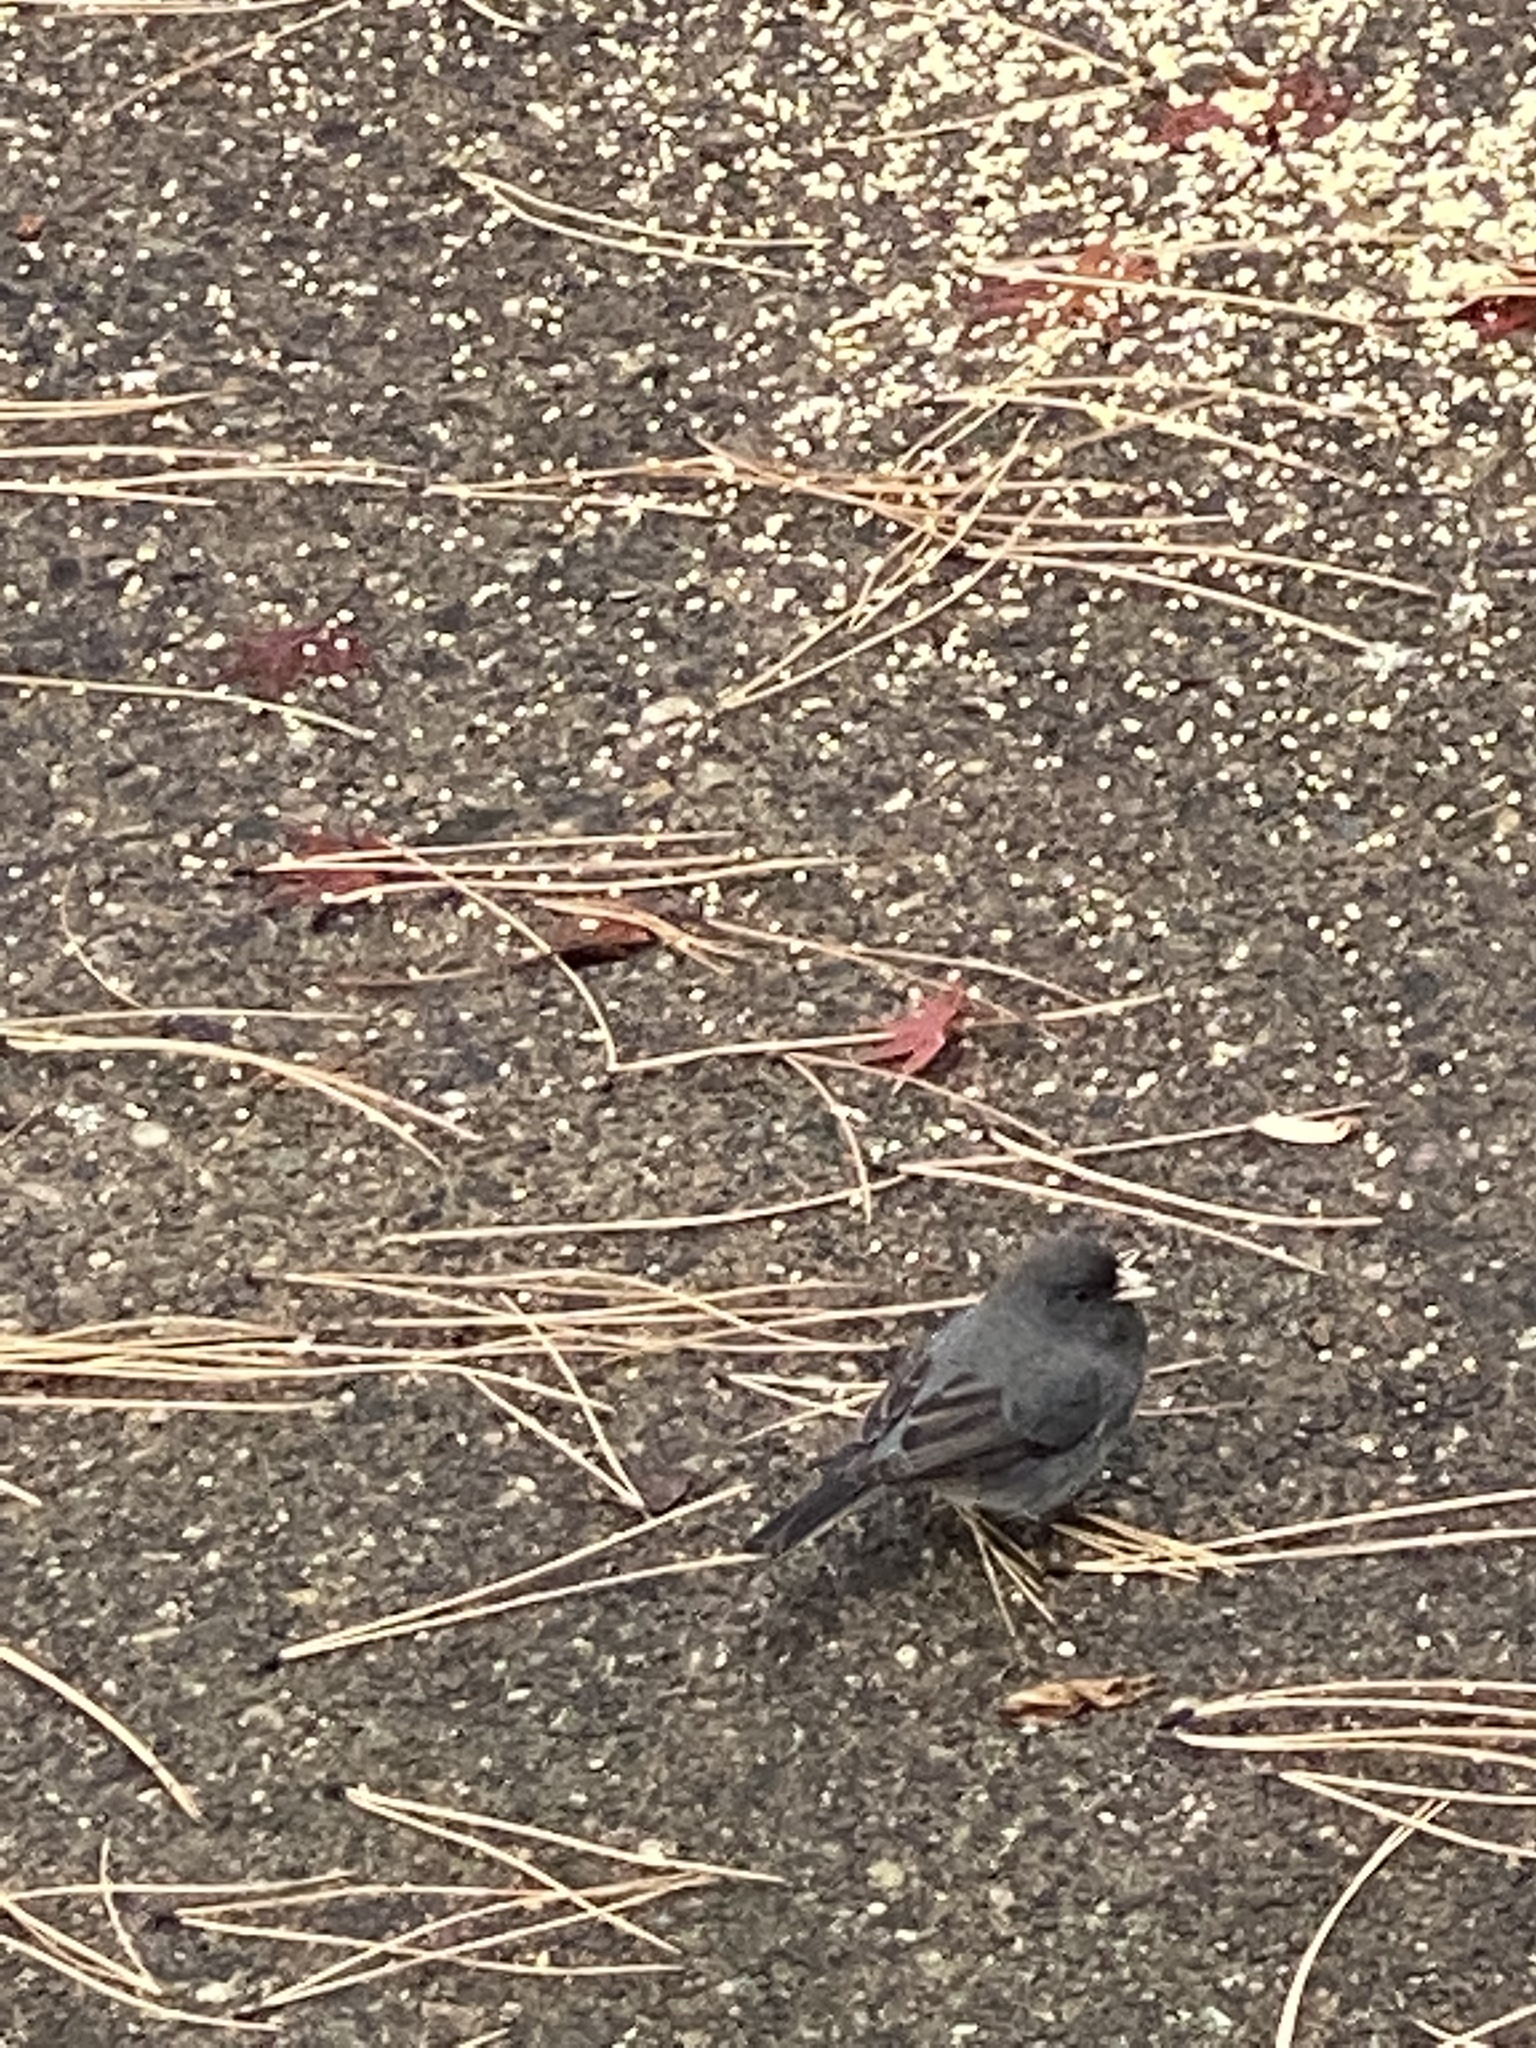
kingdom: Animalia
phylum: Chordata
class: Aves
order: Passeriformes
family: Passerellidae
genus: Junco
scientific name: Junco hyemalis
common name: Dark-eyed junco
